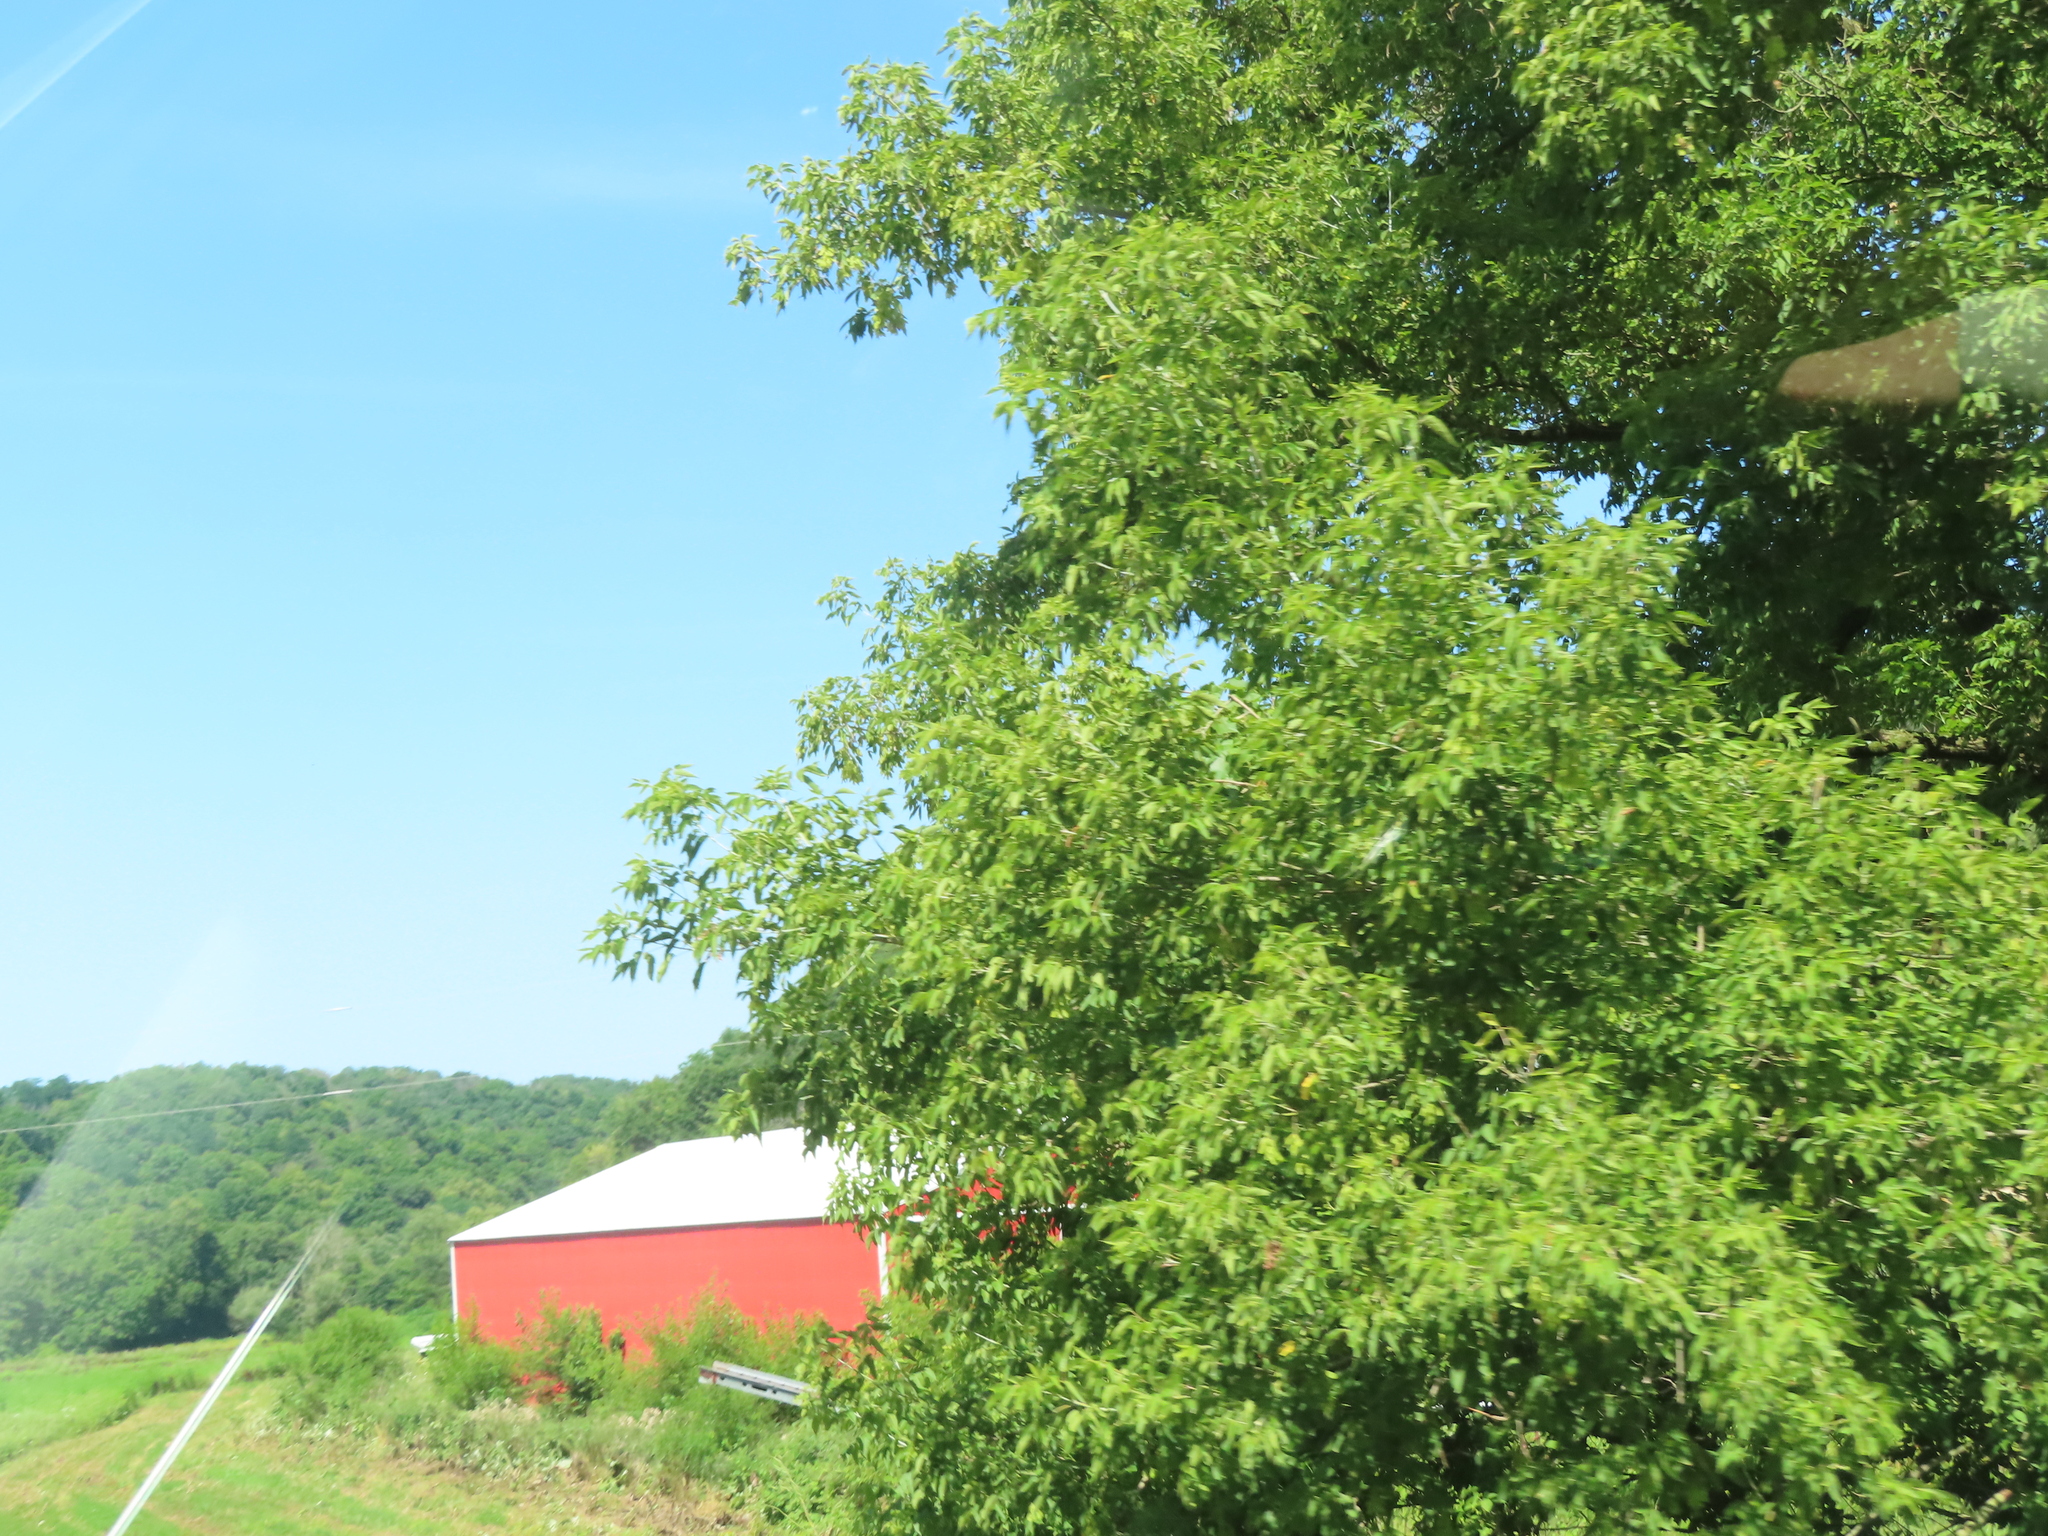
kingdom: Plantae
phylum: Tracheophyta
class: Magnoliopsida
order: Sapindales
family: Sapindaceae
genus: Acer
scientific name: Acer negundo
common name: Ashleaf maple
